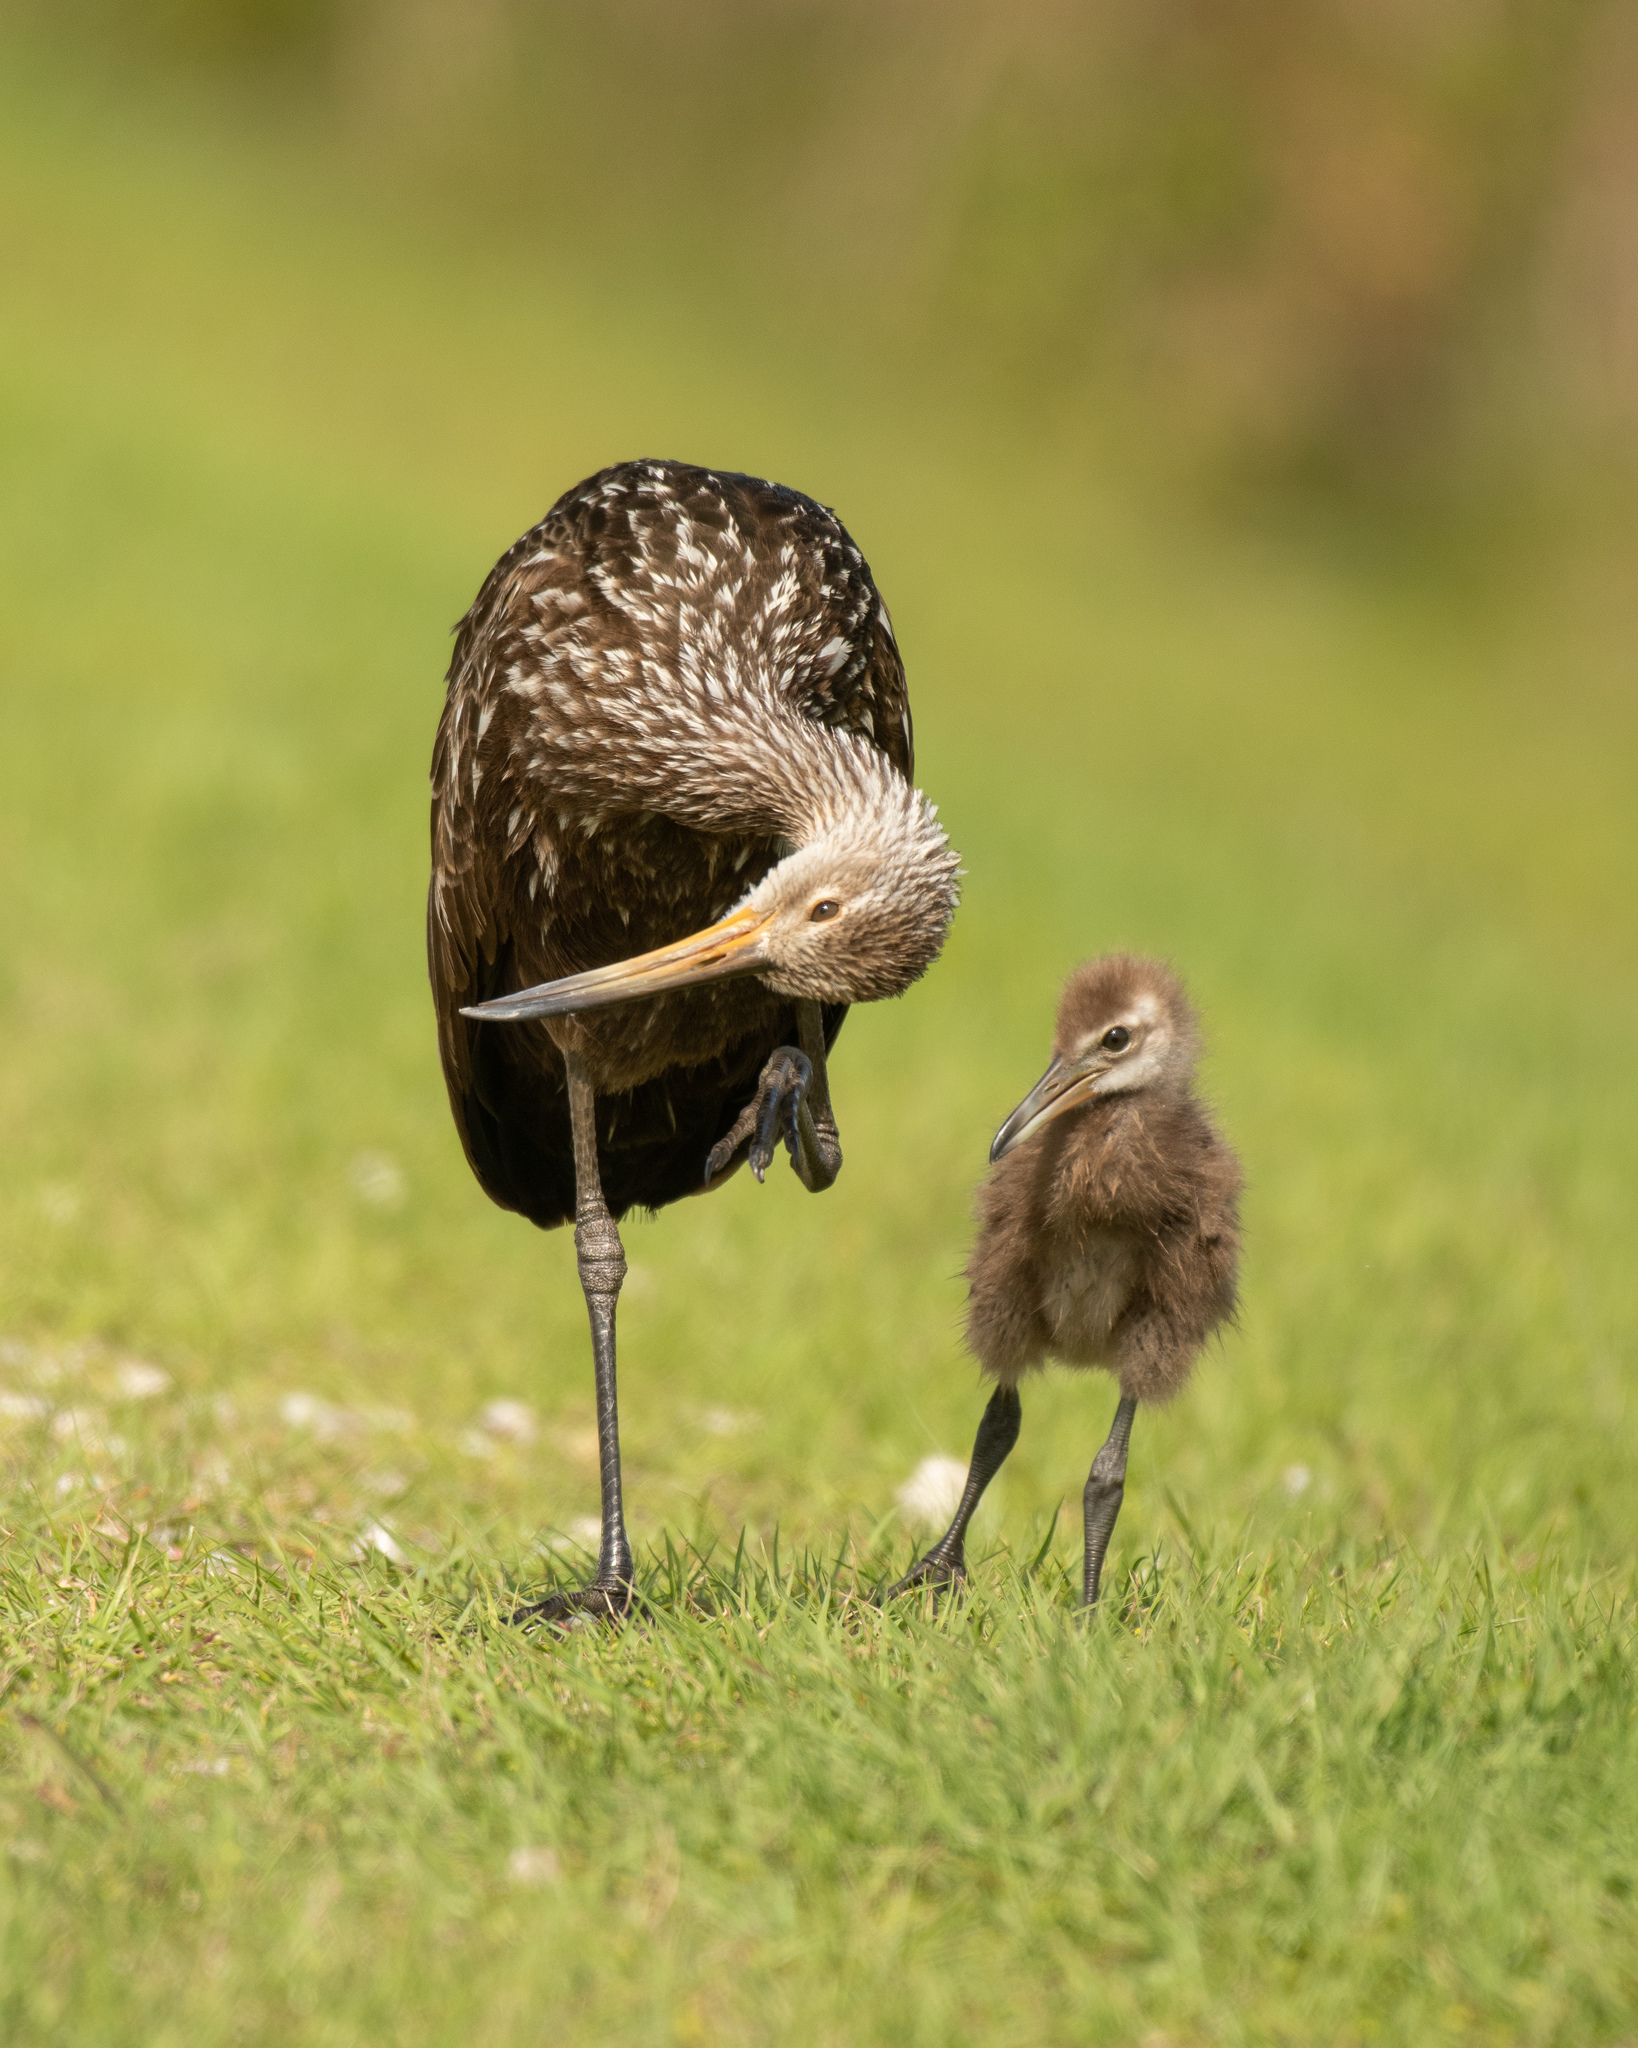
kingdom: Animalia
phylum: Chordata
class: Aves
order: Gruiformes
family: Aramidae
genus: Aramus
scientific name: Aramus guarauna
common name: Limpkin
